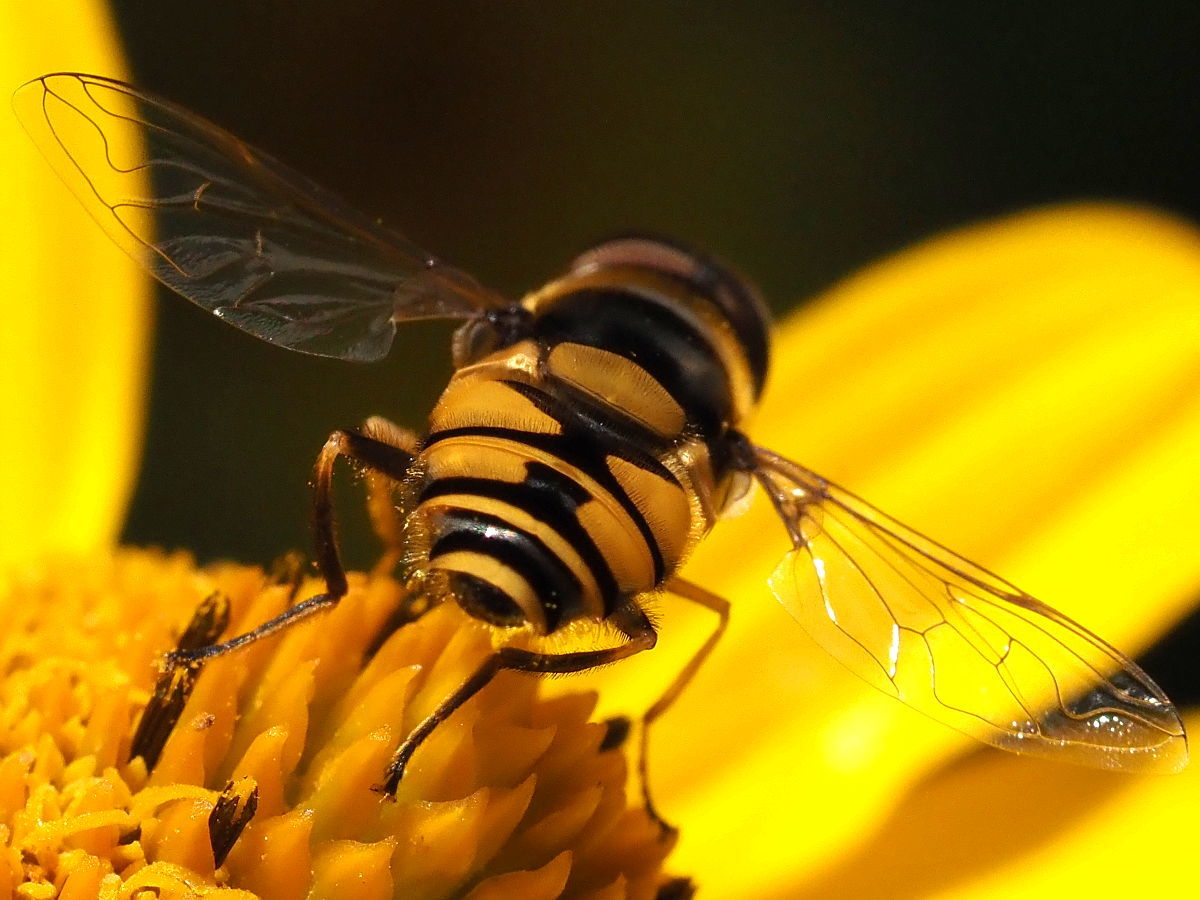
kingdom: Animalia
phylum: Arthropoda
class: Insecta
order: Diptera
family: Syrphidae
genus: Eristalis
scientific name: Eristalis transversa
